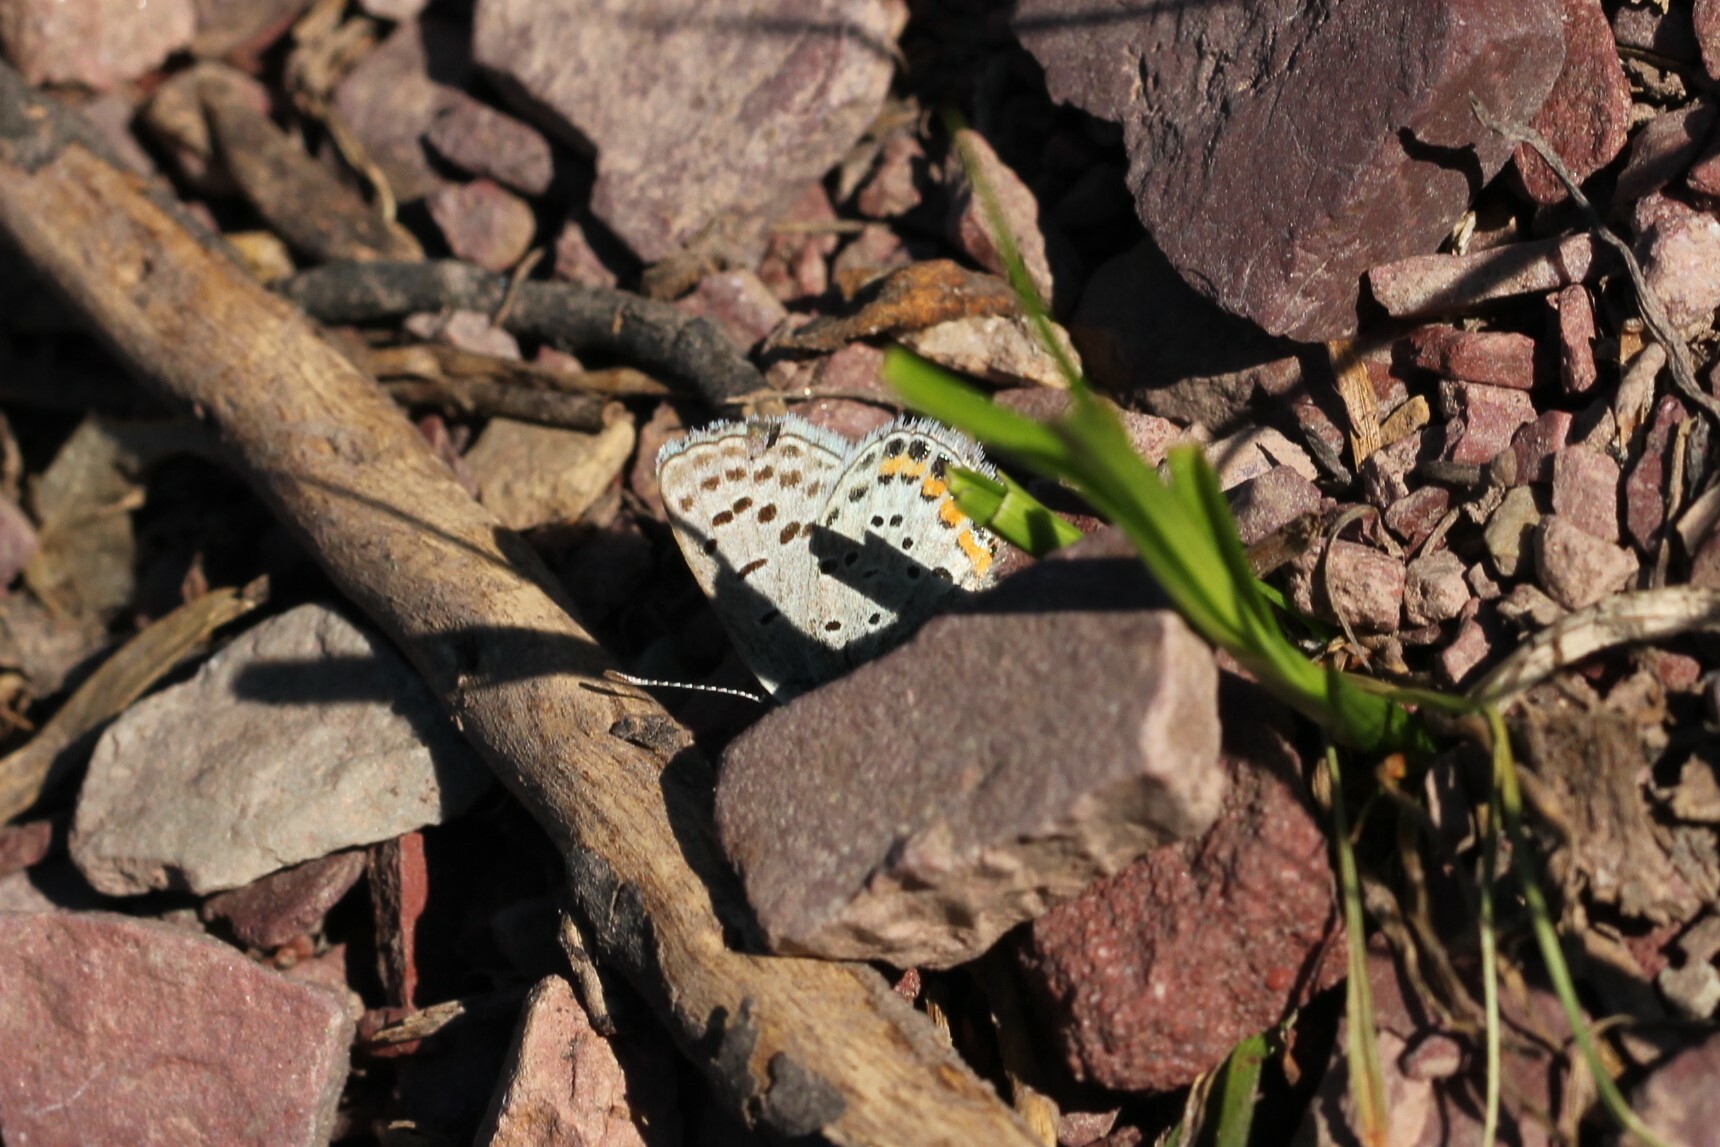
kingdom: Animalia
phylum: Arthropoda
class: Insecta
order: Lepidoptera
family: Lycaenidae
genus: Icaricia
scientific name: Icaricia lupini
